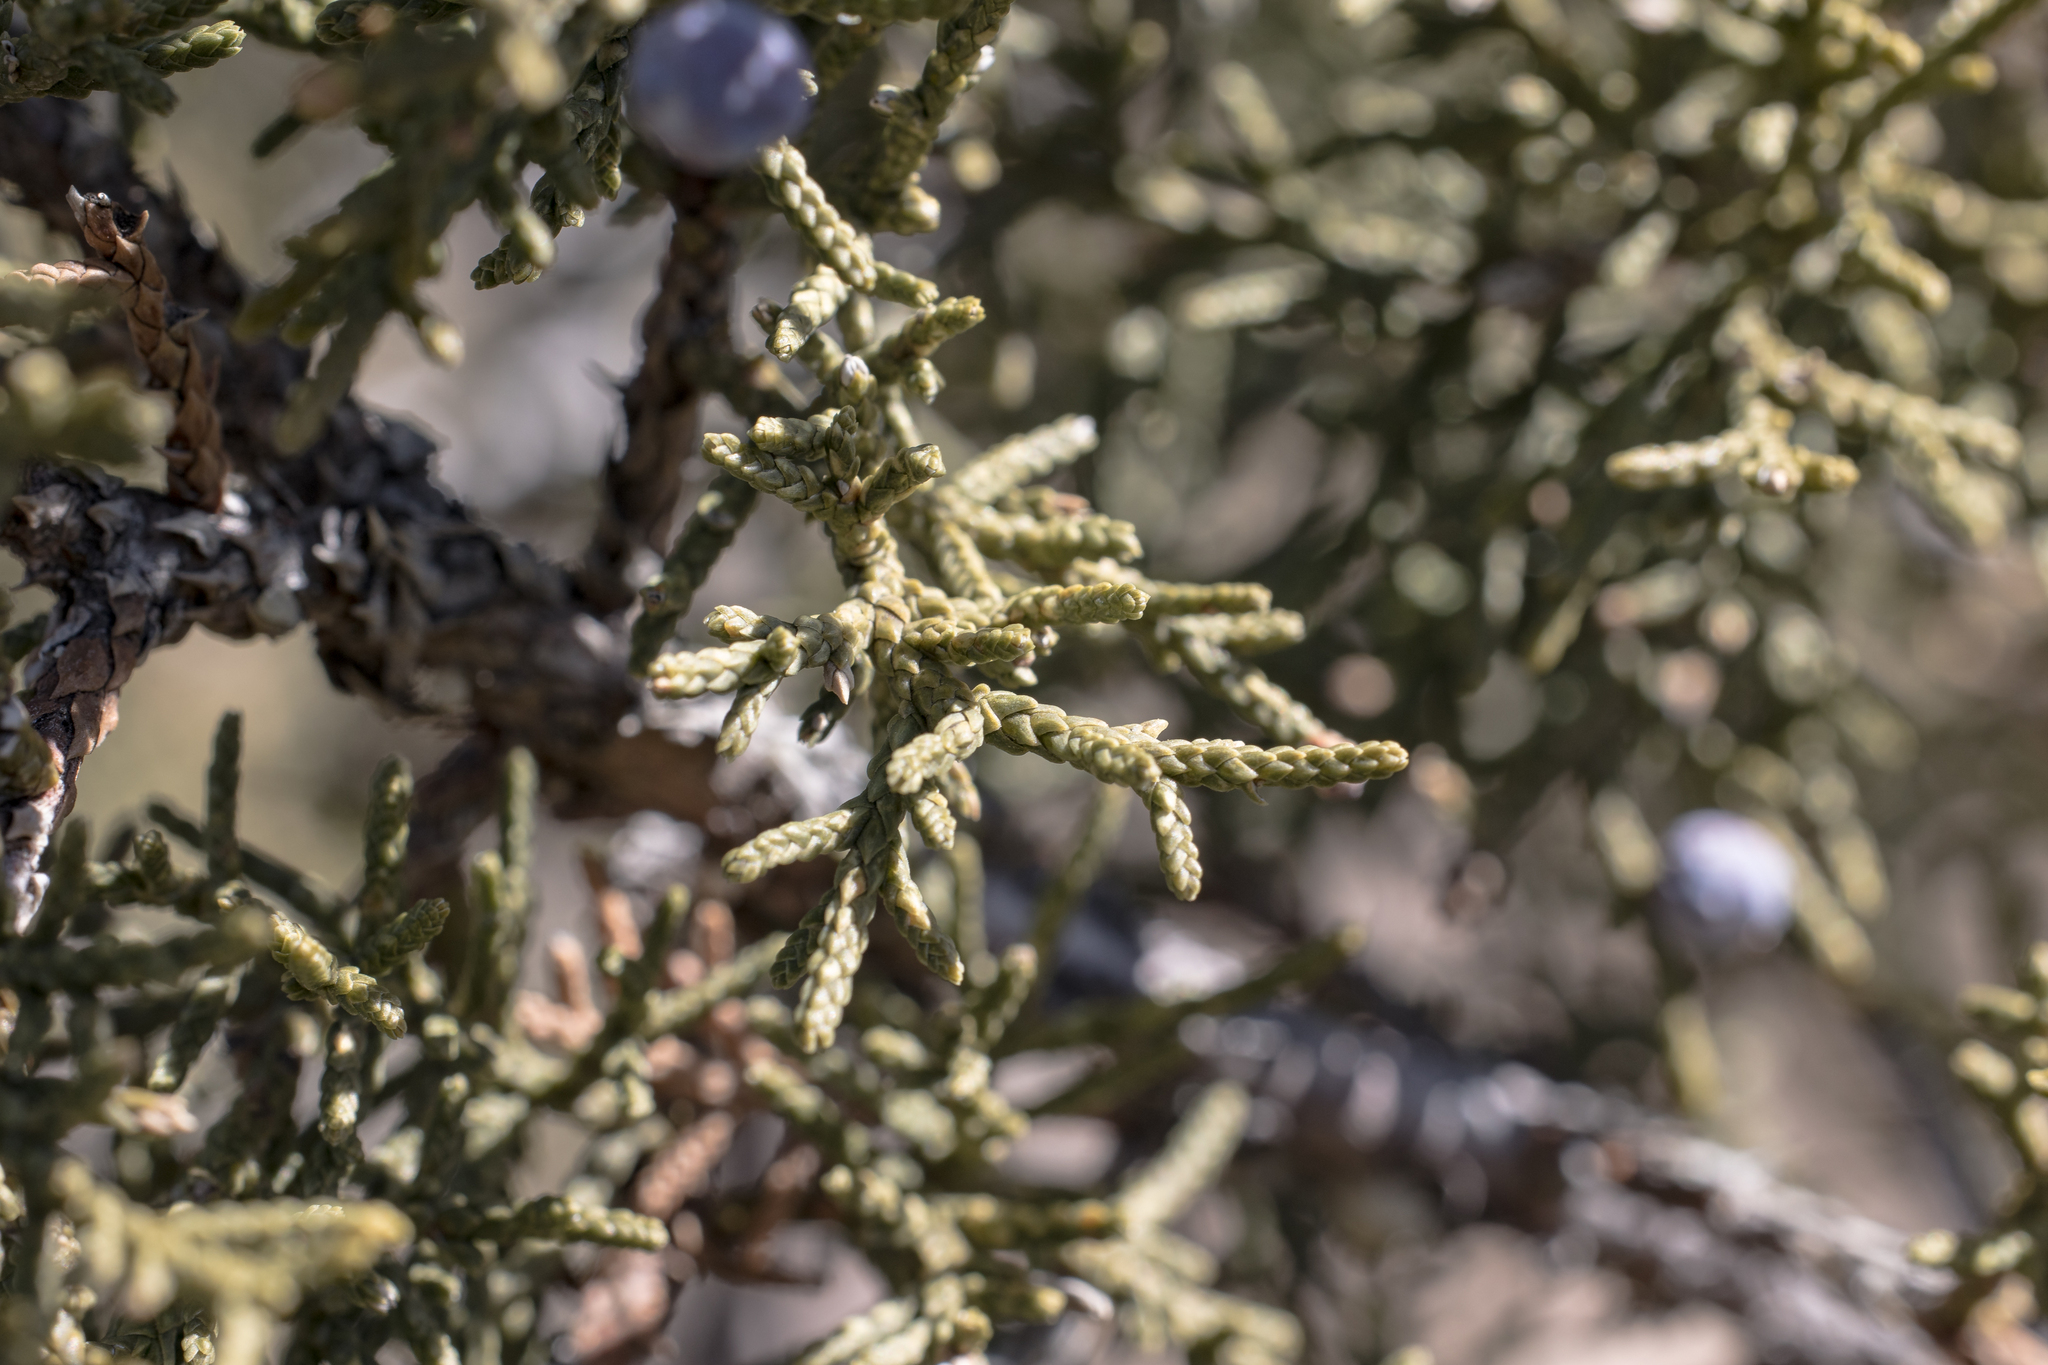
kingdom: Plantae
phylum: Tracheophyta
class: Pinopsida
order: Pinales
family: Cupressaceae
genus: Juniperus
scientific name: Juniperus monosperma
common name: One-seed juniper
